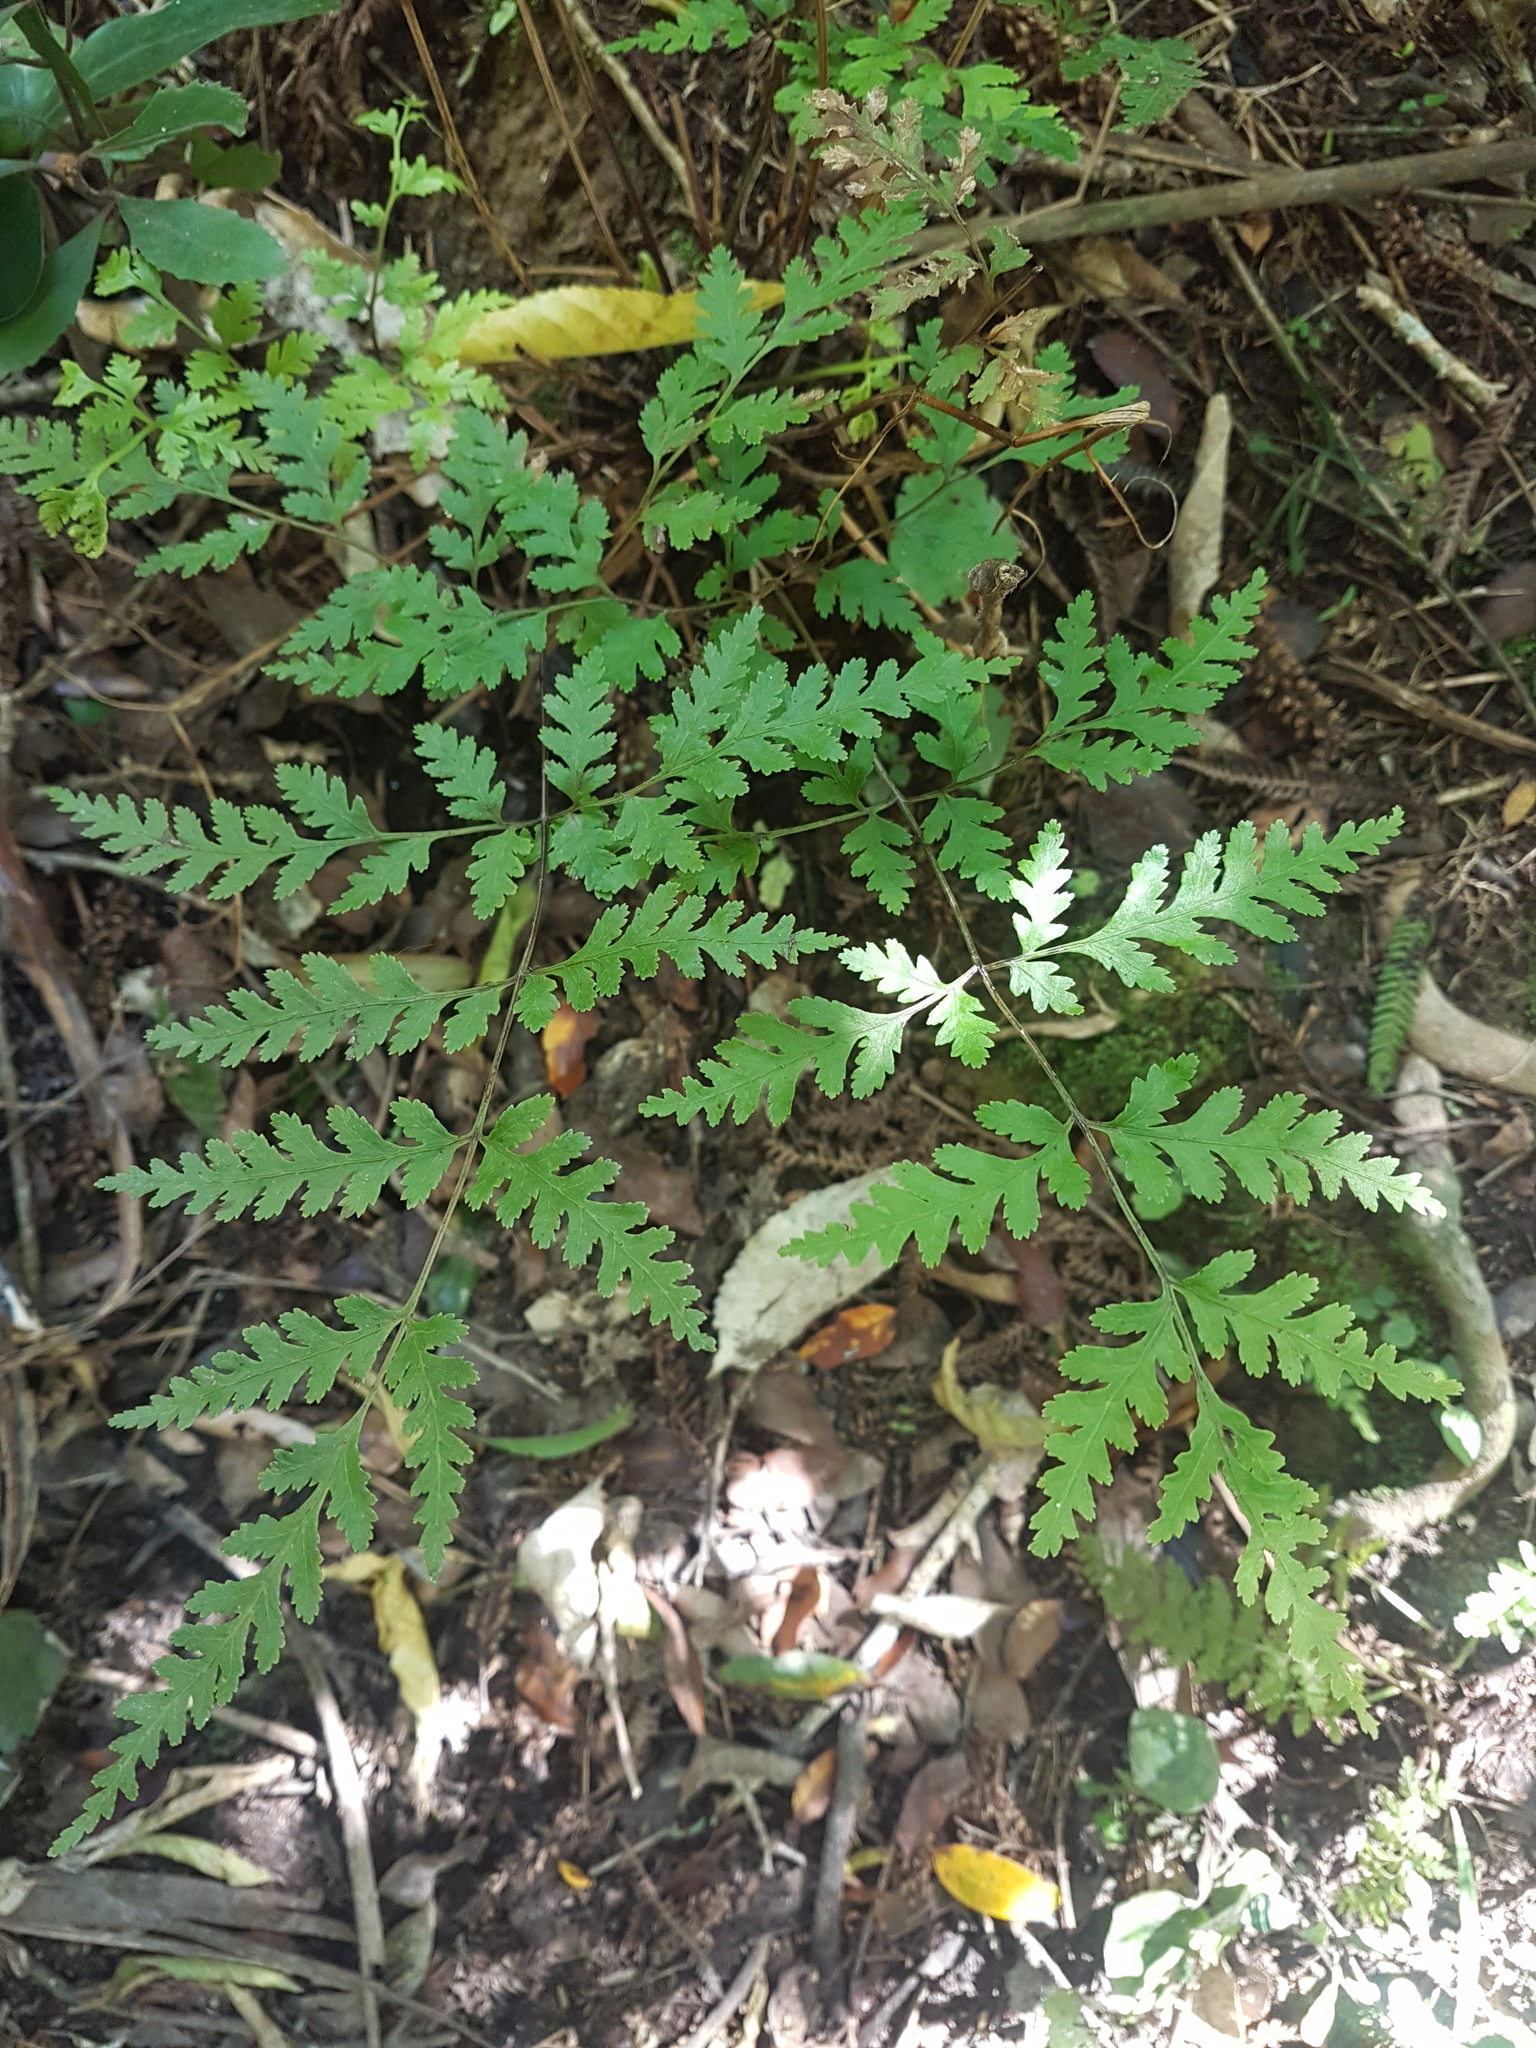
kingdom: Plantae
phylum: Tracheophyta
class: Polypodiopsida
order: Polypodiales
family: Pteridaceae
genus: Pteris
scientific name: Pteris macilenta
